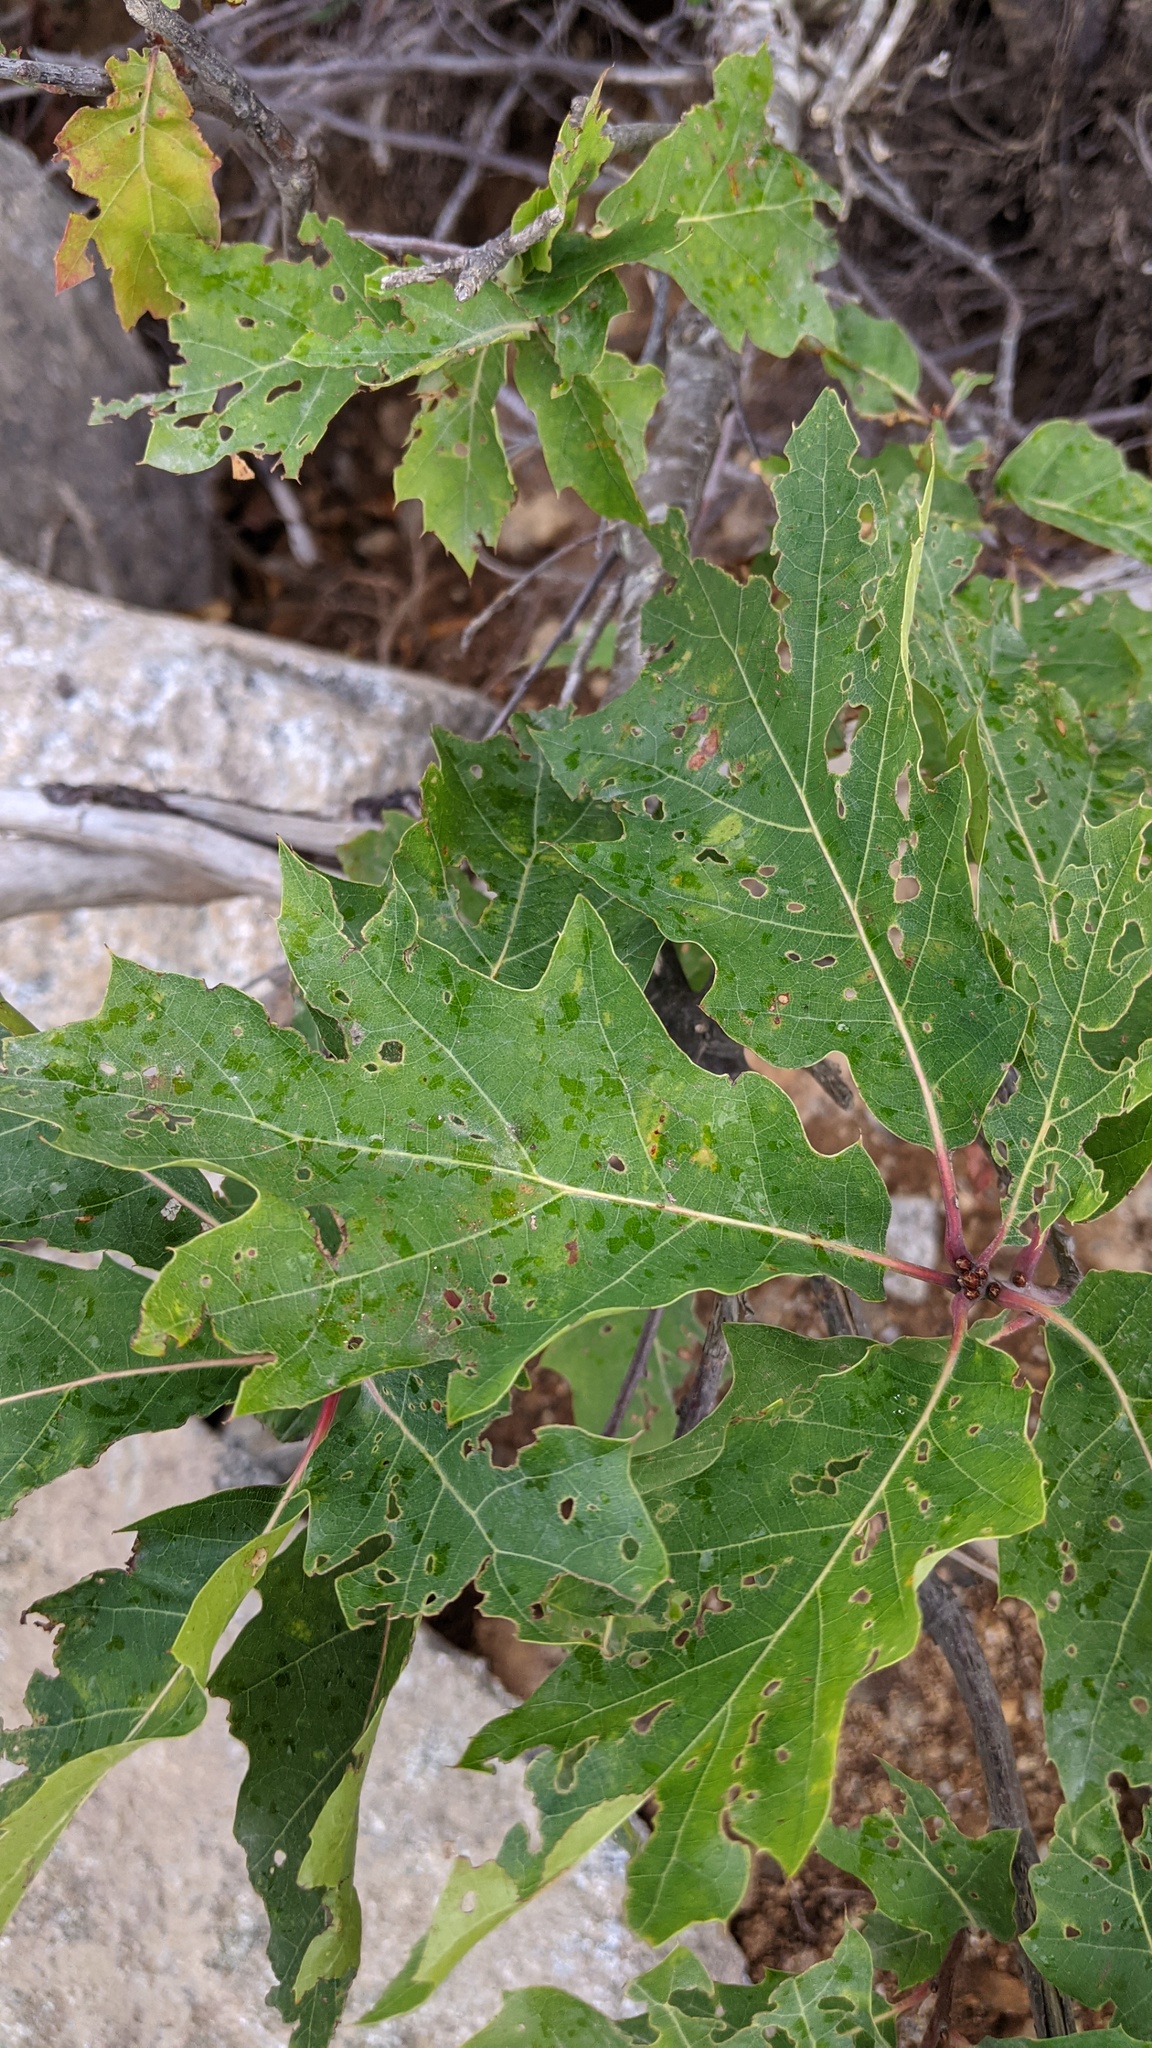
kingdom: Plantae
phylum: Tracheophyta
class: Magnoliopsida
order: Fagales
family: Fagaceae
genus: Quercus
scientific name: Quercus rubra
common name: Red oak
